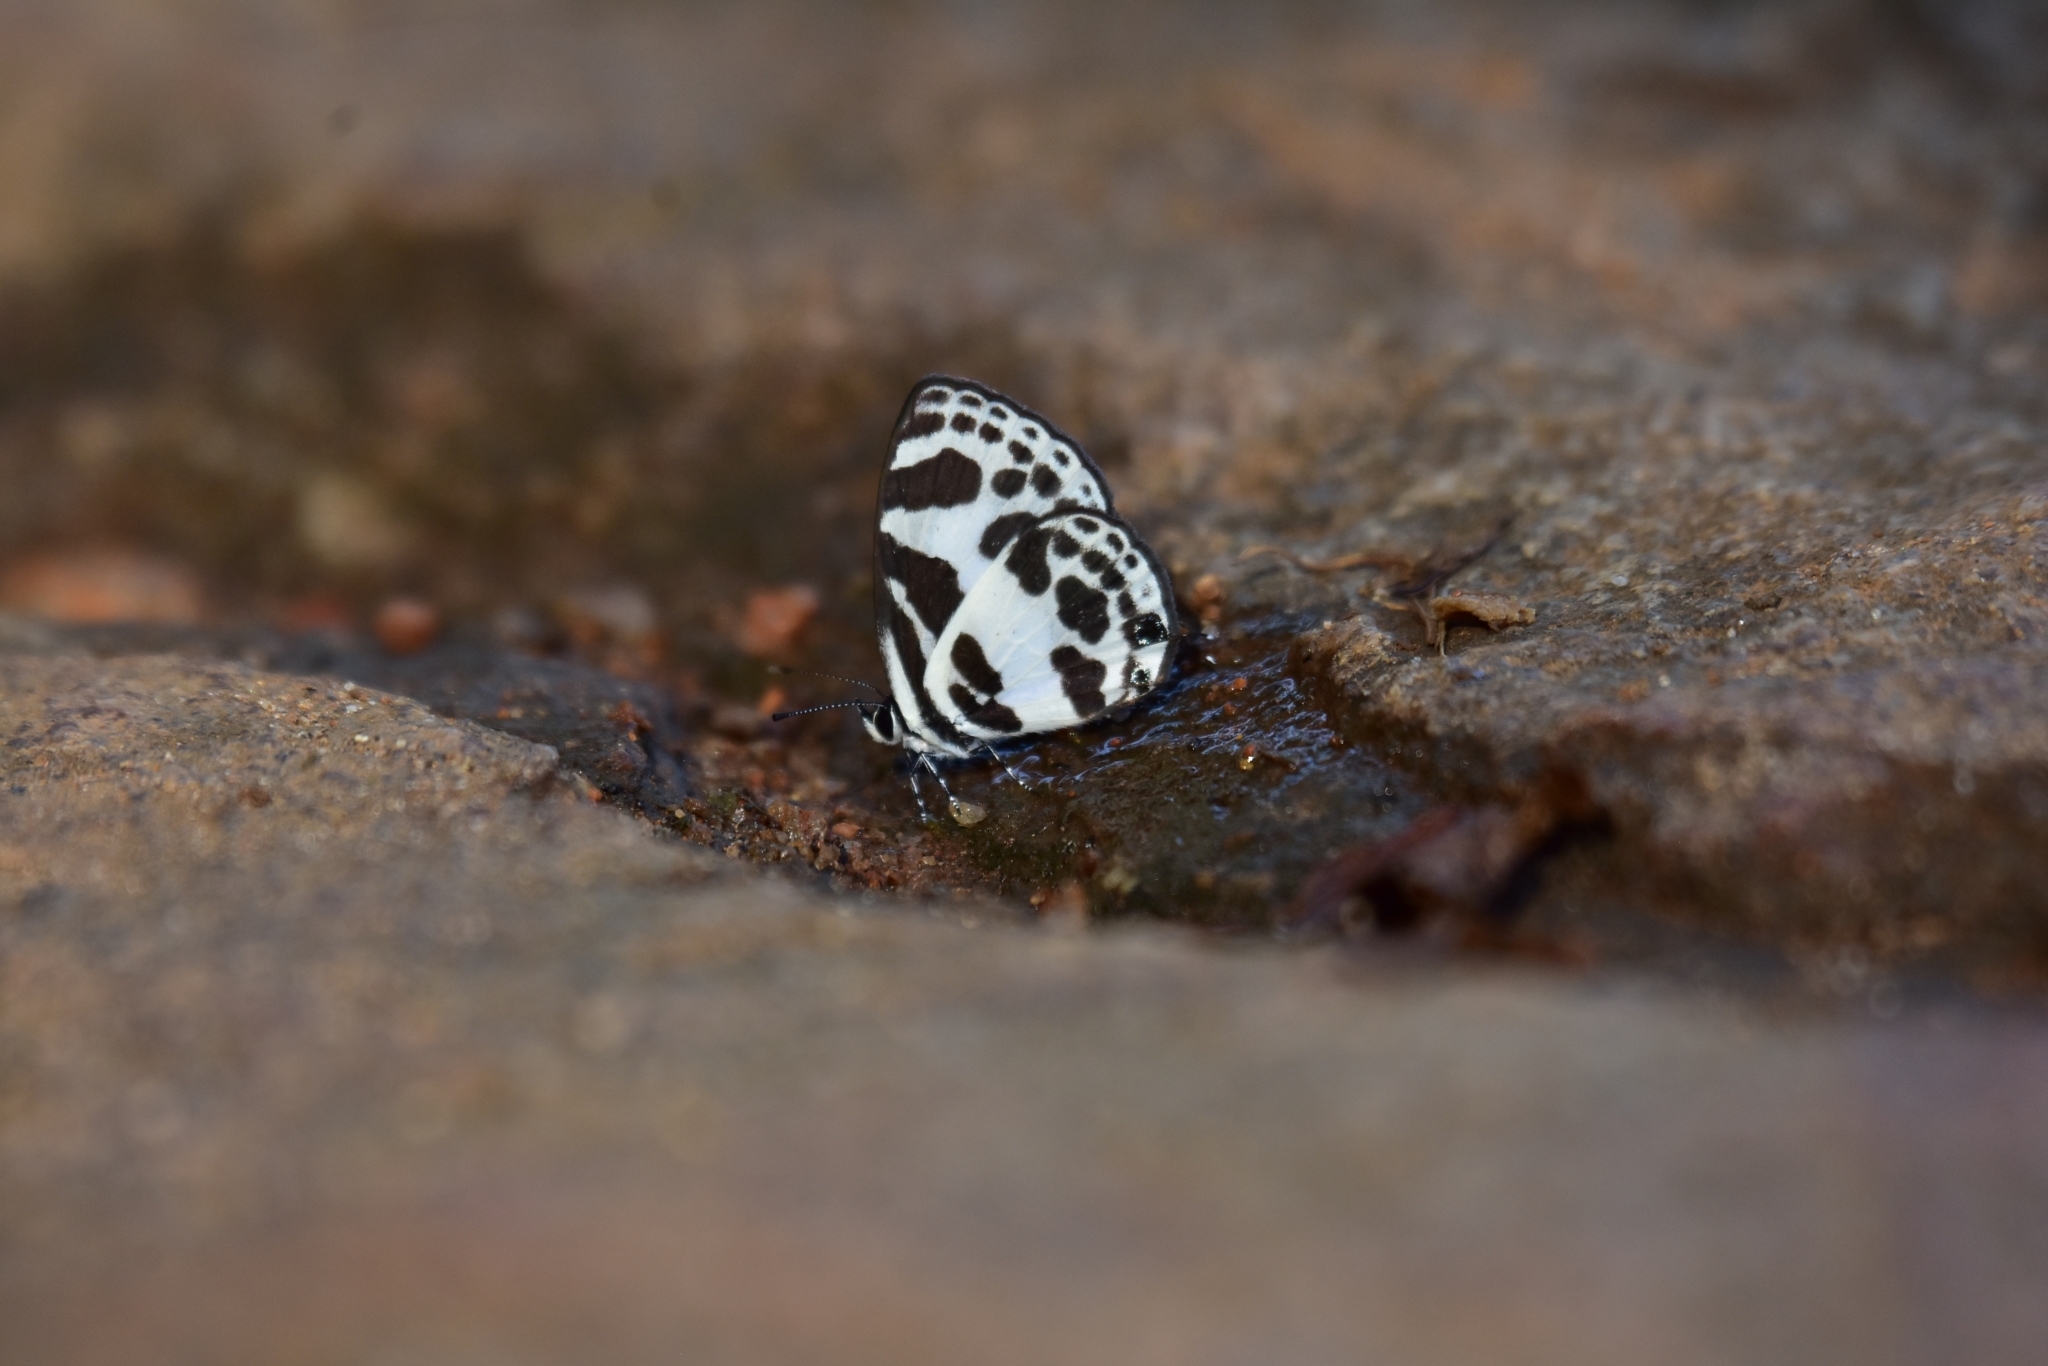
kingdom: Animalia
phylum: Arthropoda
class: Insecta
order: Lepidoptera
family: Lycaenidae
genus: Discolampa
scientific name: Discolampa ethion
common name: Banded blue pierrot
